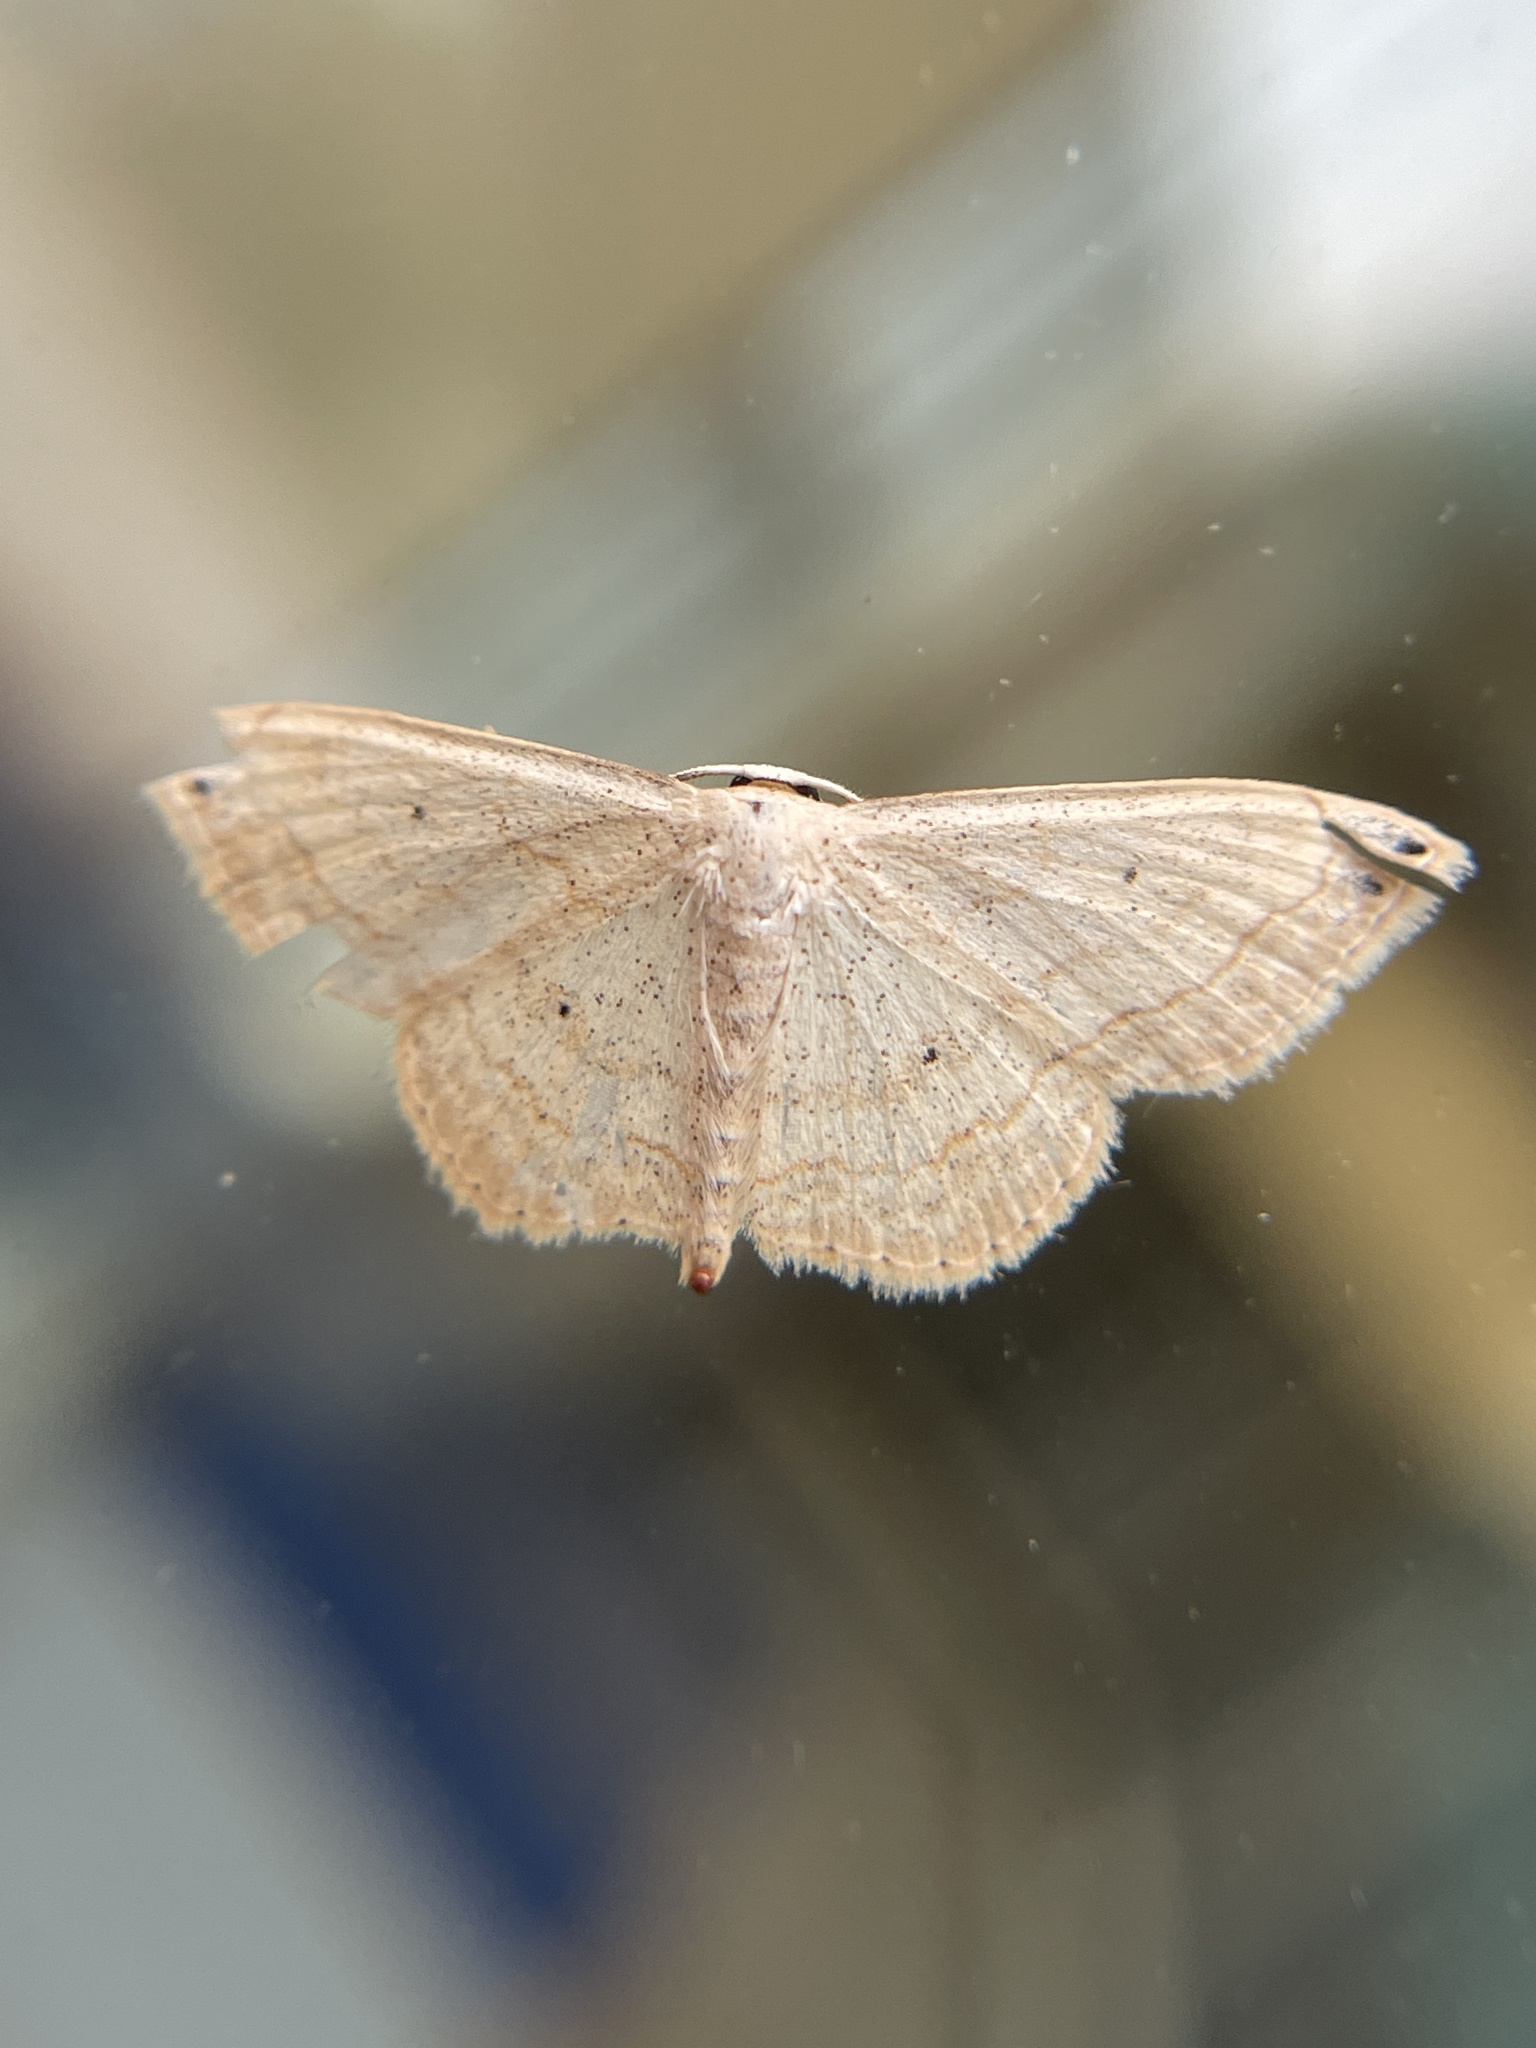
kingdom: Animalia
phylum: Arthropoda
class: Insecta
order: Lepidoptera
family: Geometridae
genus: Scopula
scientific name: Scopula umbilicata
